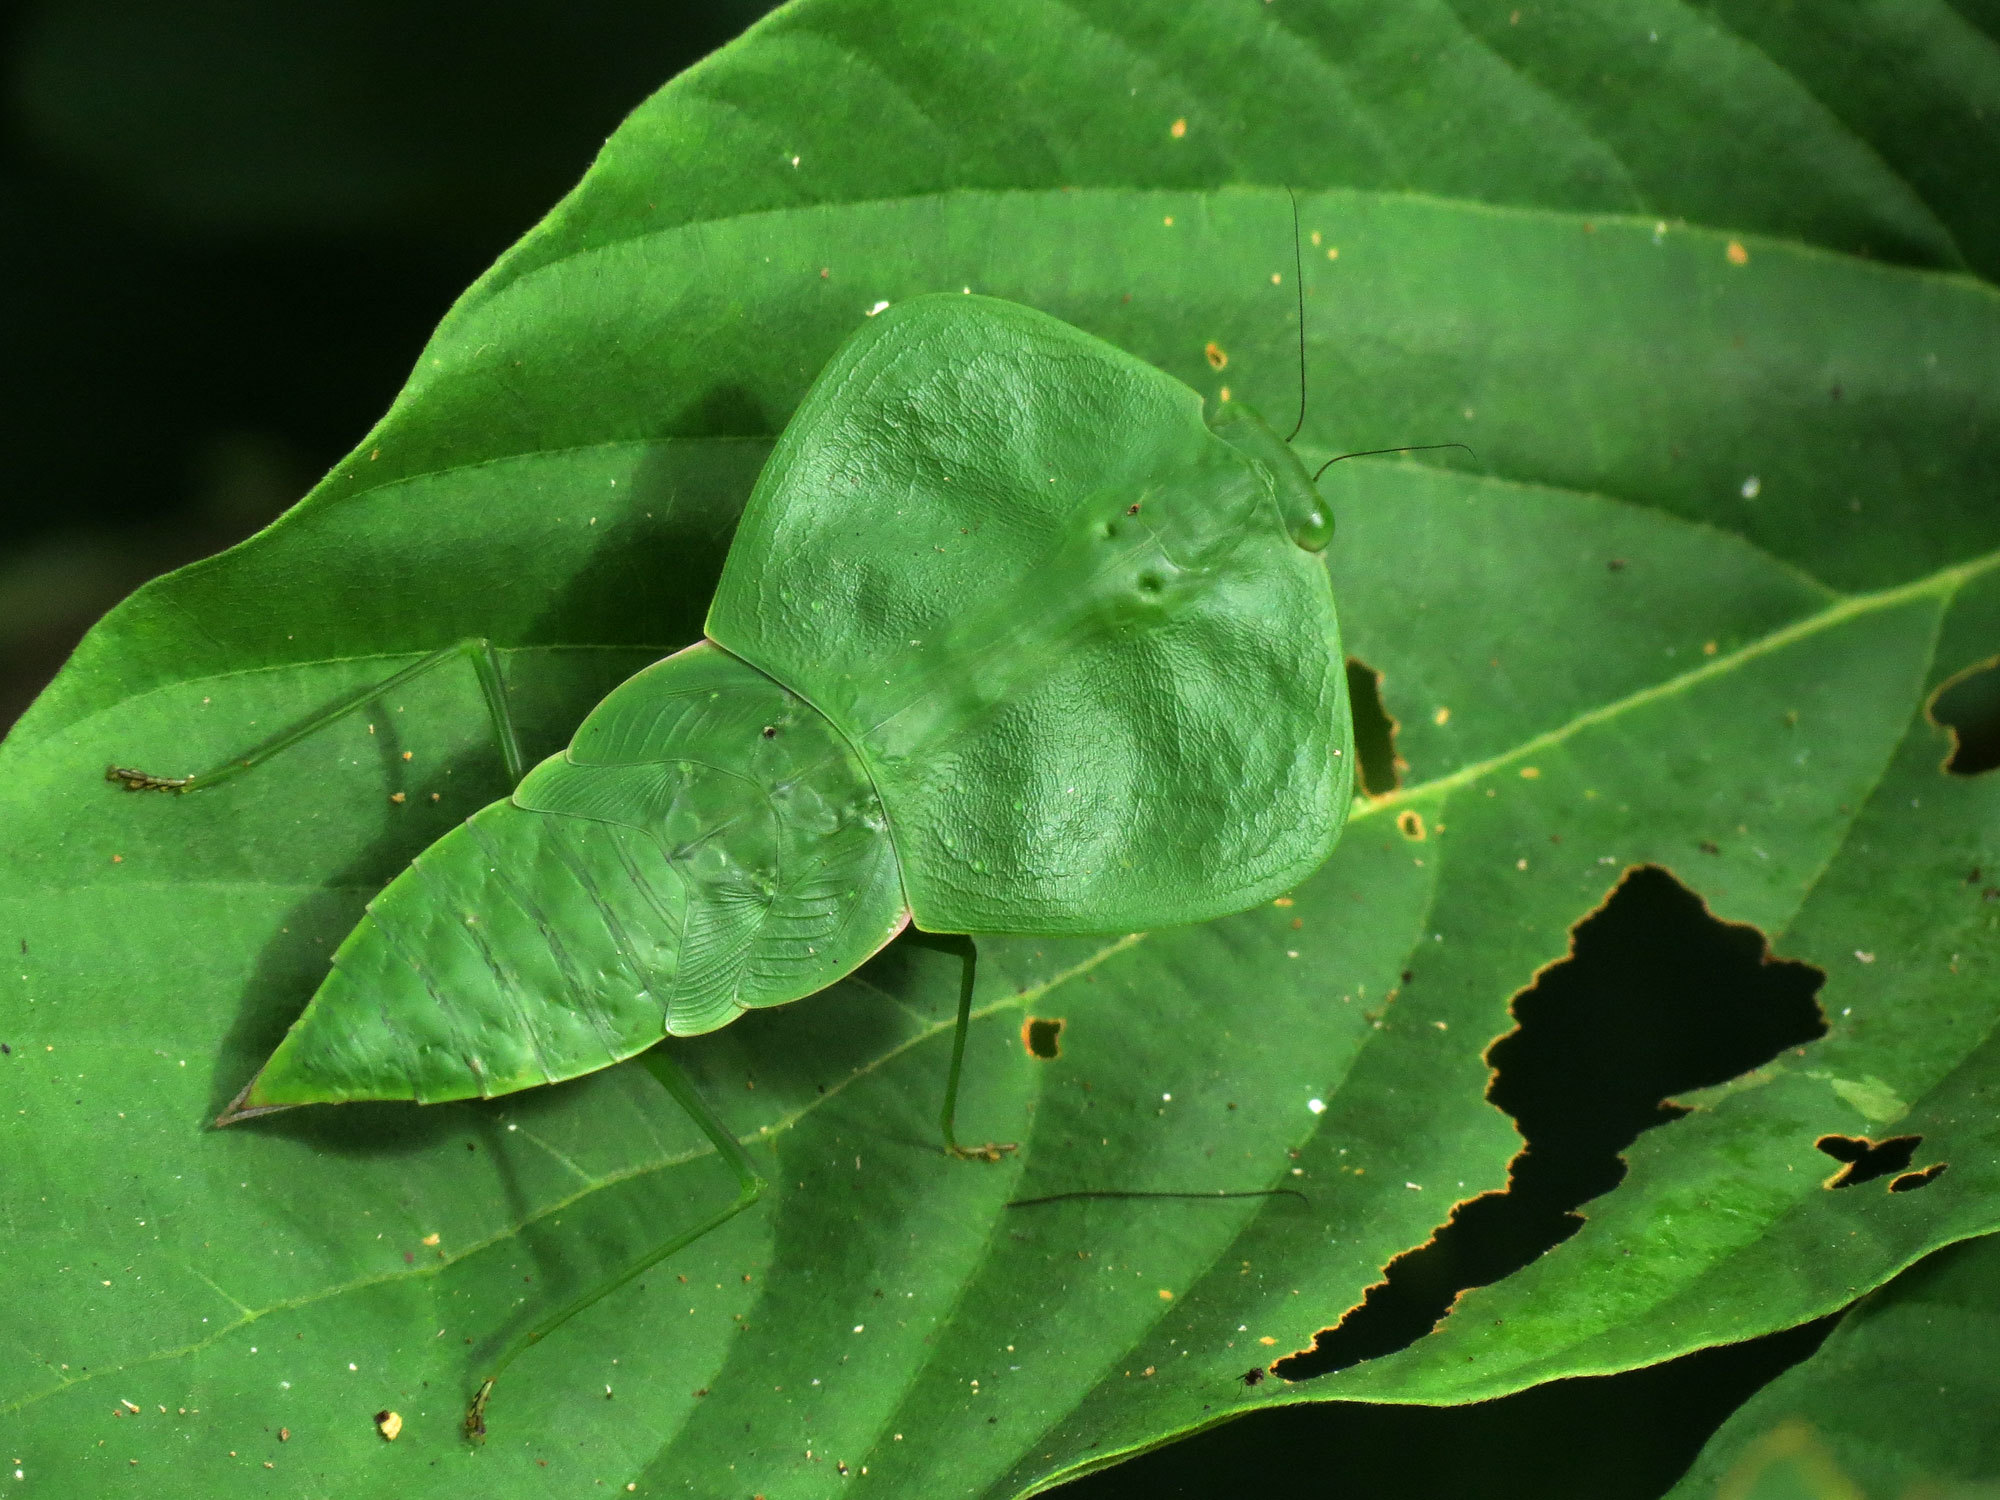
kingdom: Animalia
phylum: Arthropoda
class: Insecta
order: Mantodea
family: Mantidae
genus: Choeradodis
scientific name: Choeradodis rhombicollis
